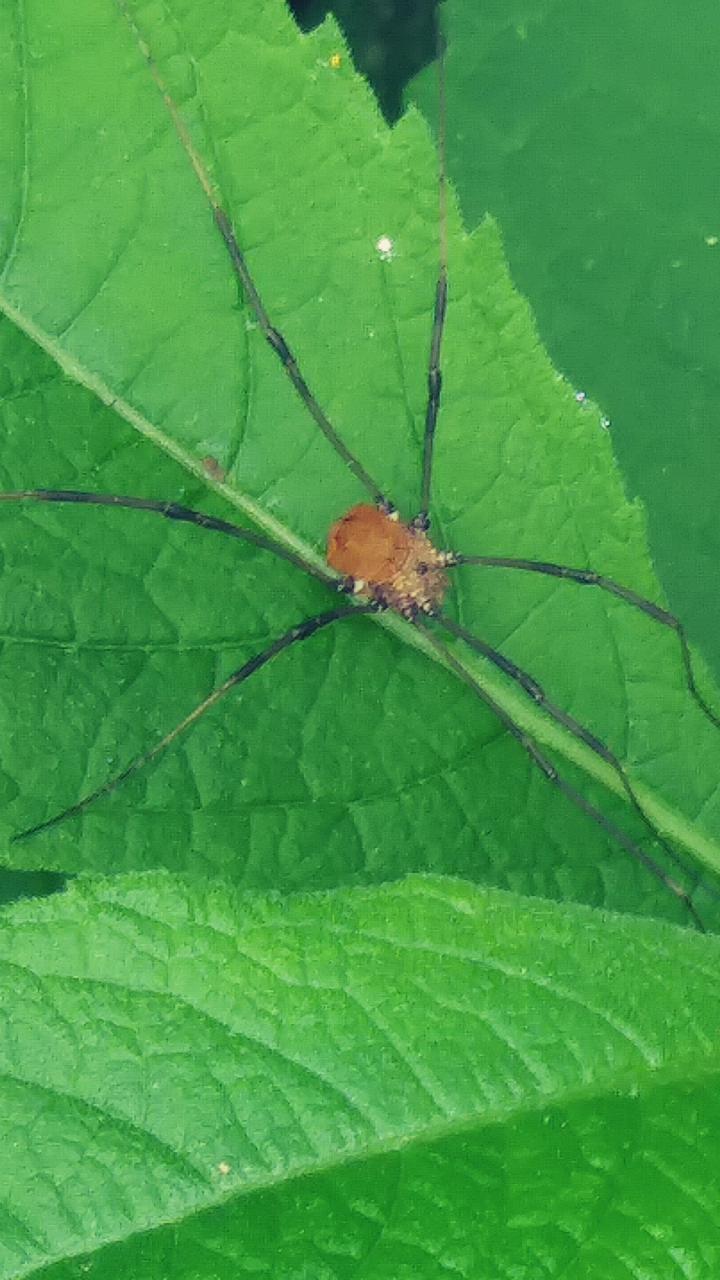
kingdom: Animalia
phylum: Arthropoda
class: Arachnida
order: Opiliones
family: Sclerosomatidae
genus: Leiobunum
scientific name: Leiobunum verrucosum
